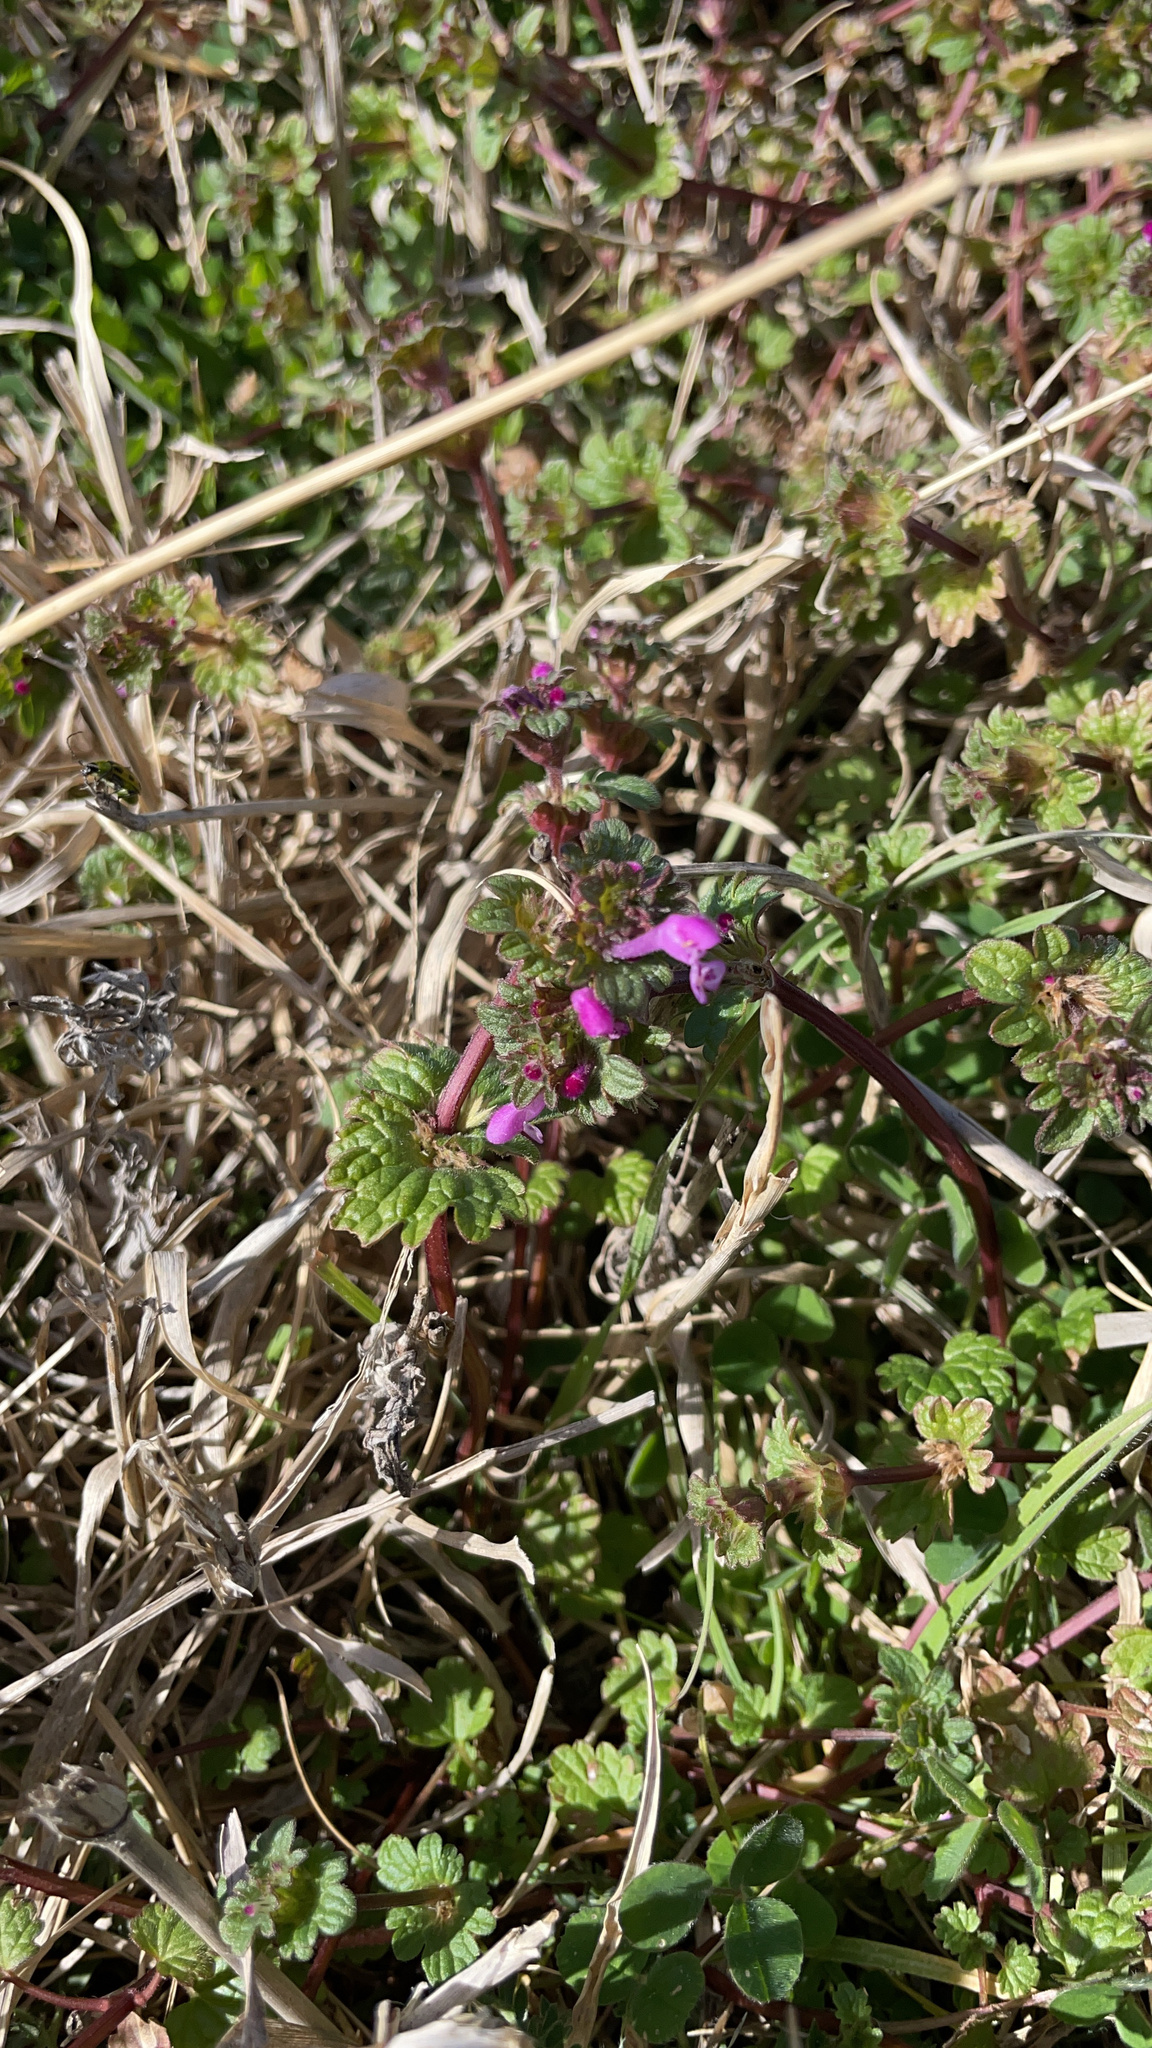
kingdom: Plantae
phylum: Tracheophyta
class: Magnoliopsida
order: Lamiales
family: Lamiaceae
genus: Lamium
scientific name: Lamium amplexicaule
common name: Henbit dead-nettle
